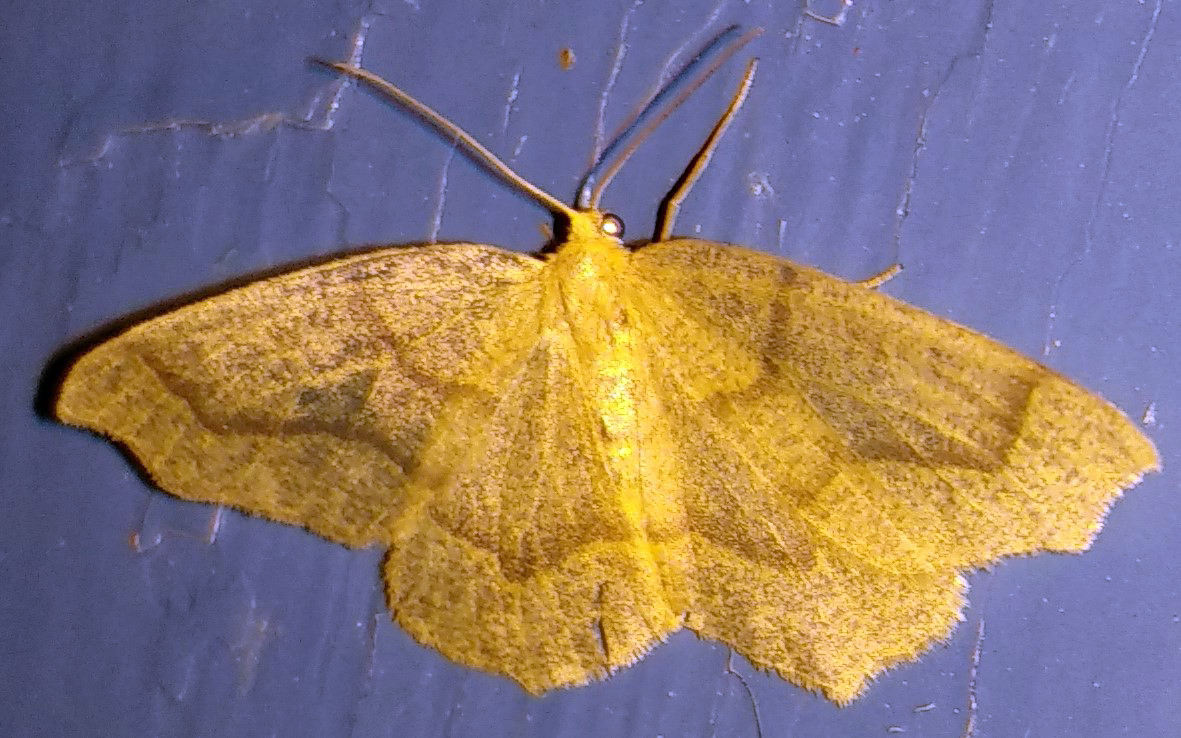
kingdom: Animalia
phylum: Arthropoda
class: Insecta
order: Lepidoptera
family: Geometridae
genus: Lambdina
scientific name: Lambdina fiscellaria
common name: Hemlock looper
